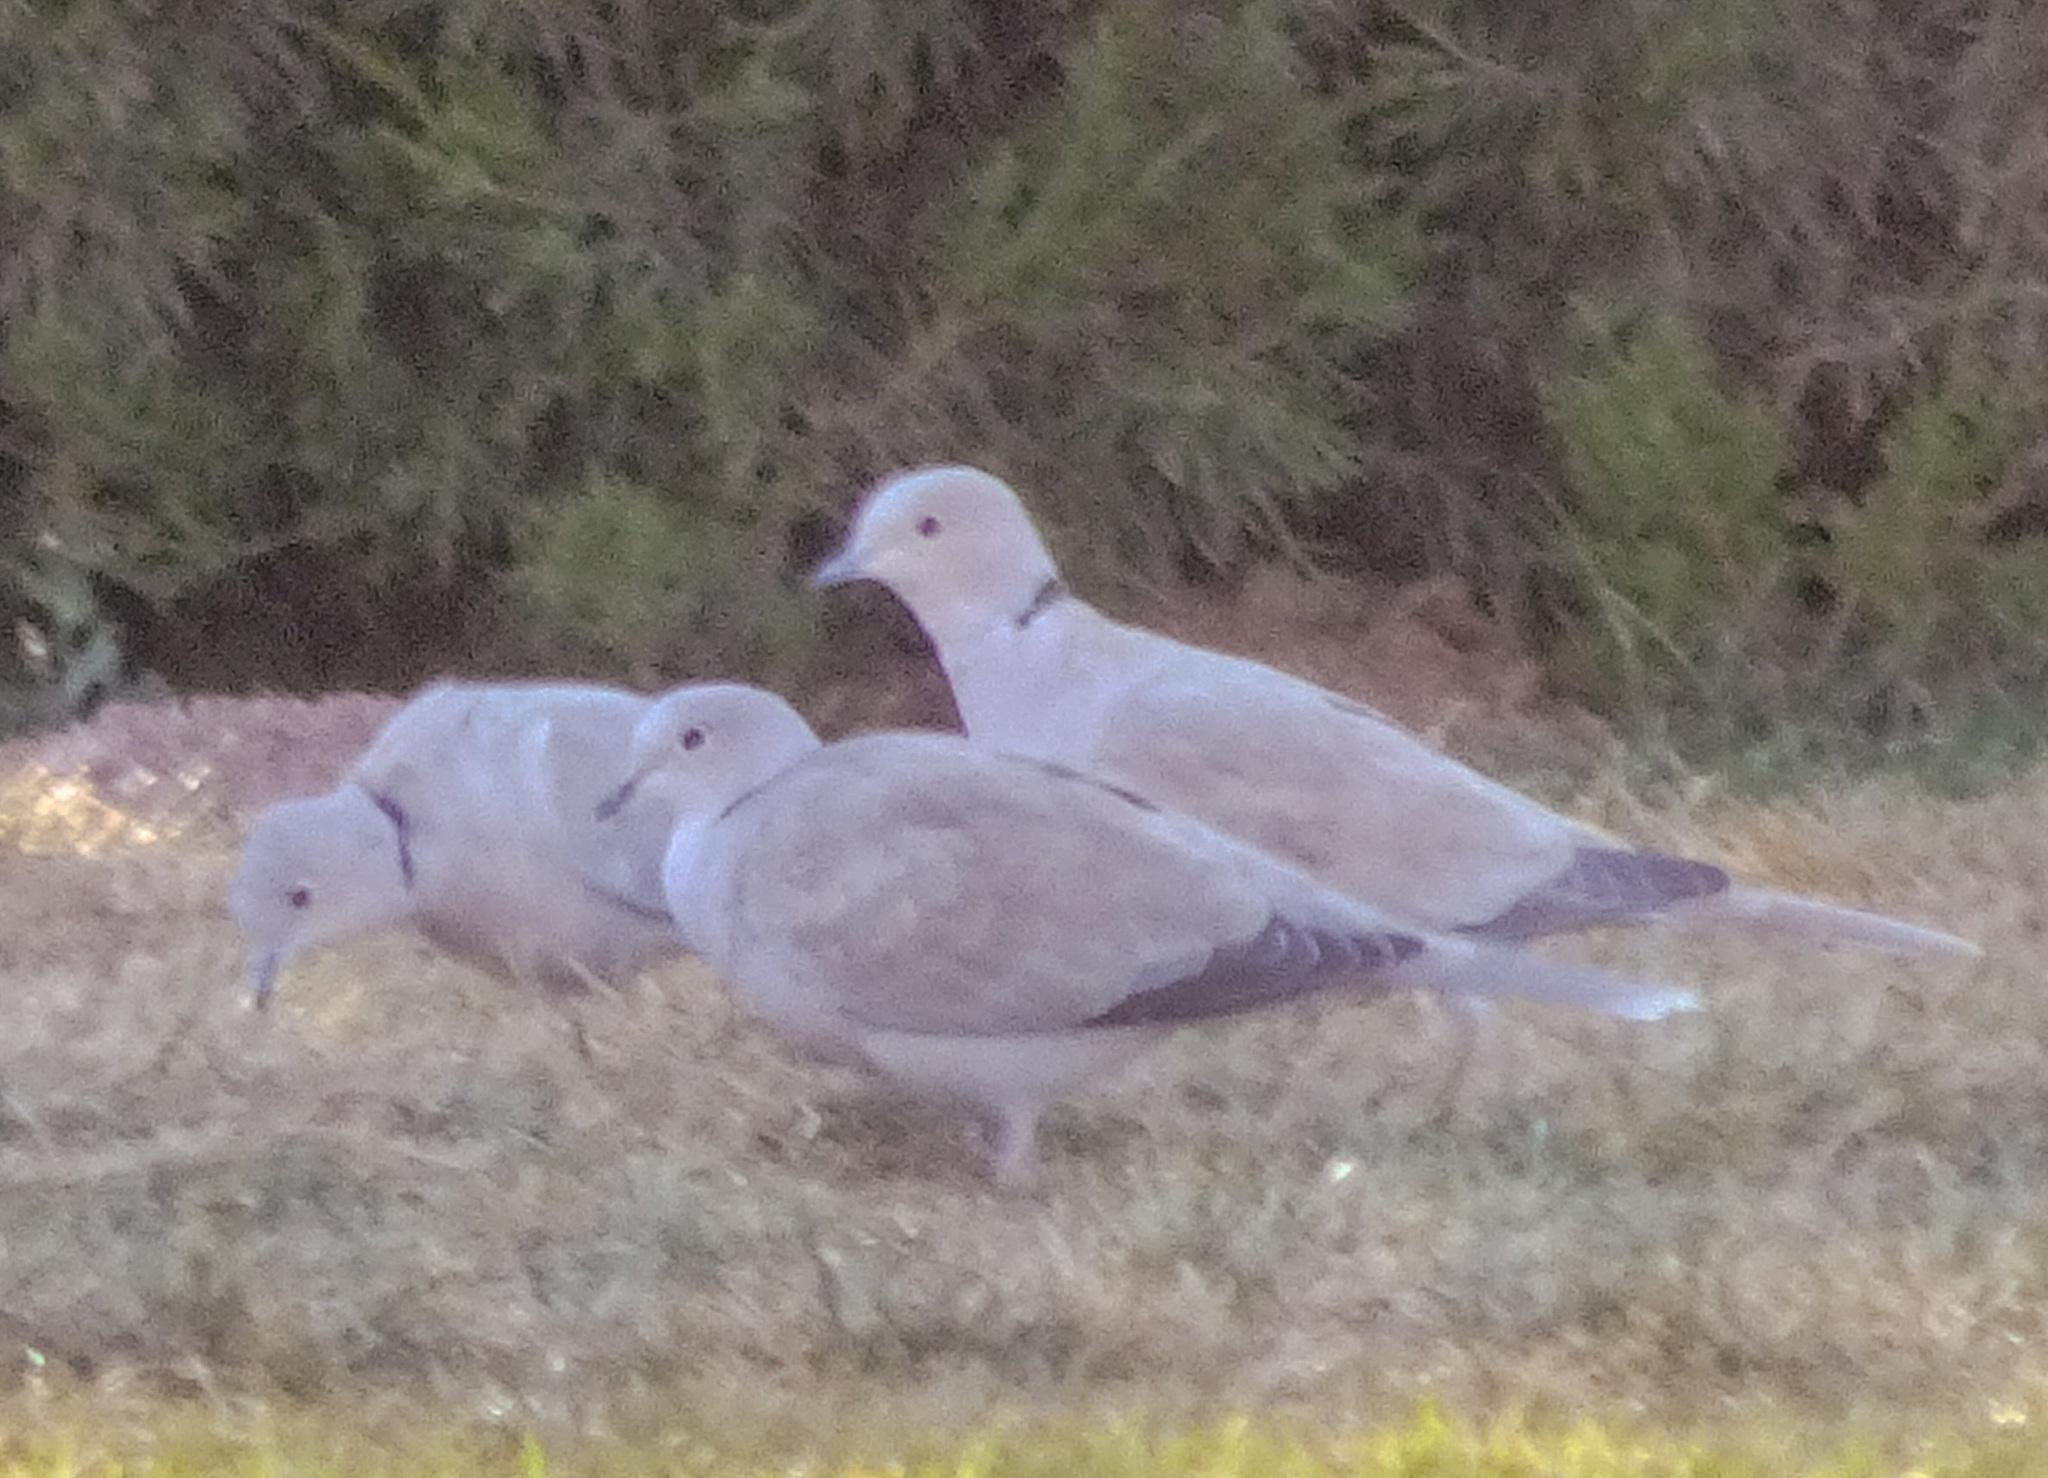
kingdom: Animalia
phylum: Chordata
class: Aves
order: Columbiformes
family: Columbidae
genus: Streptopelia
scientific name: Streptopelia decaocto
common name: Eurasian collared dove
